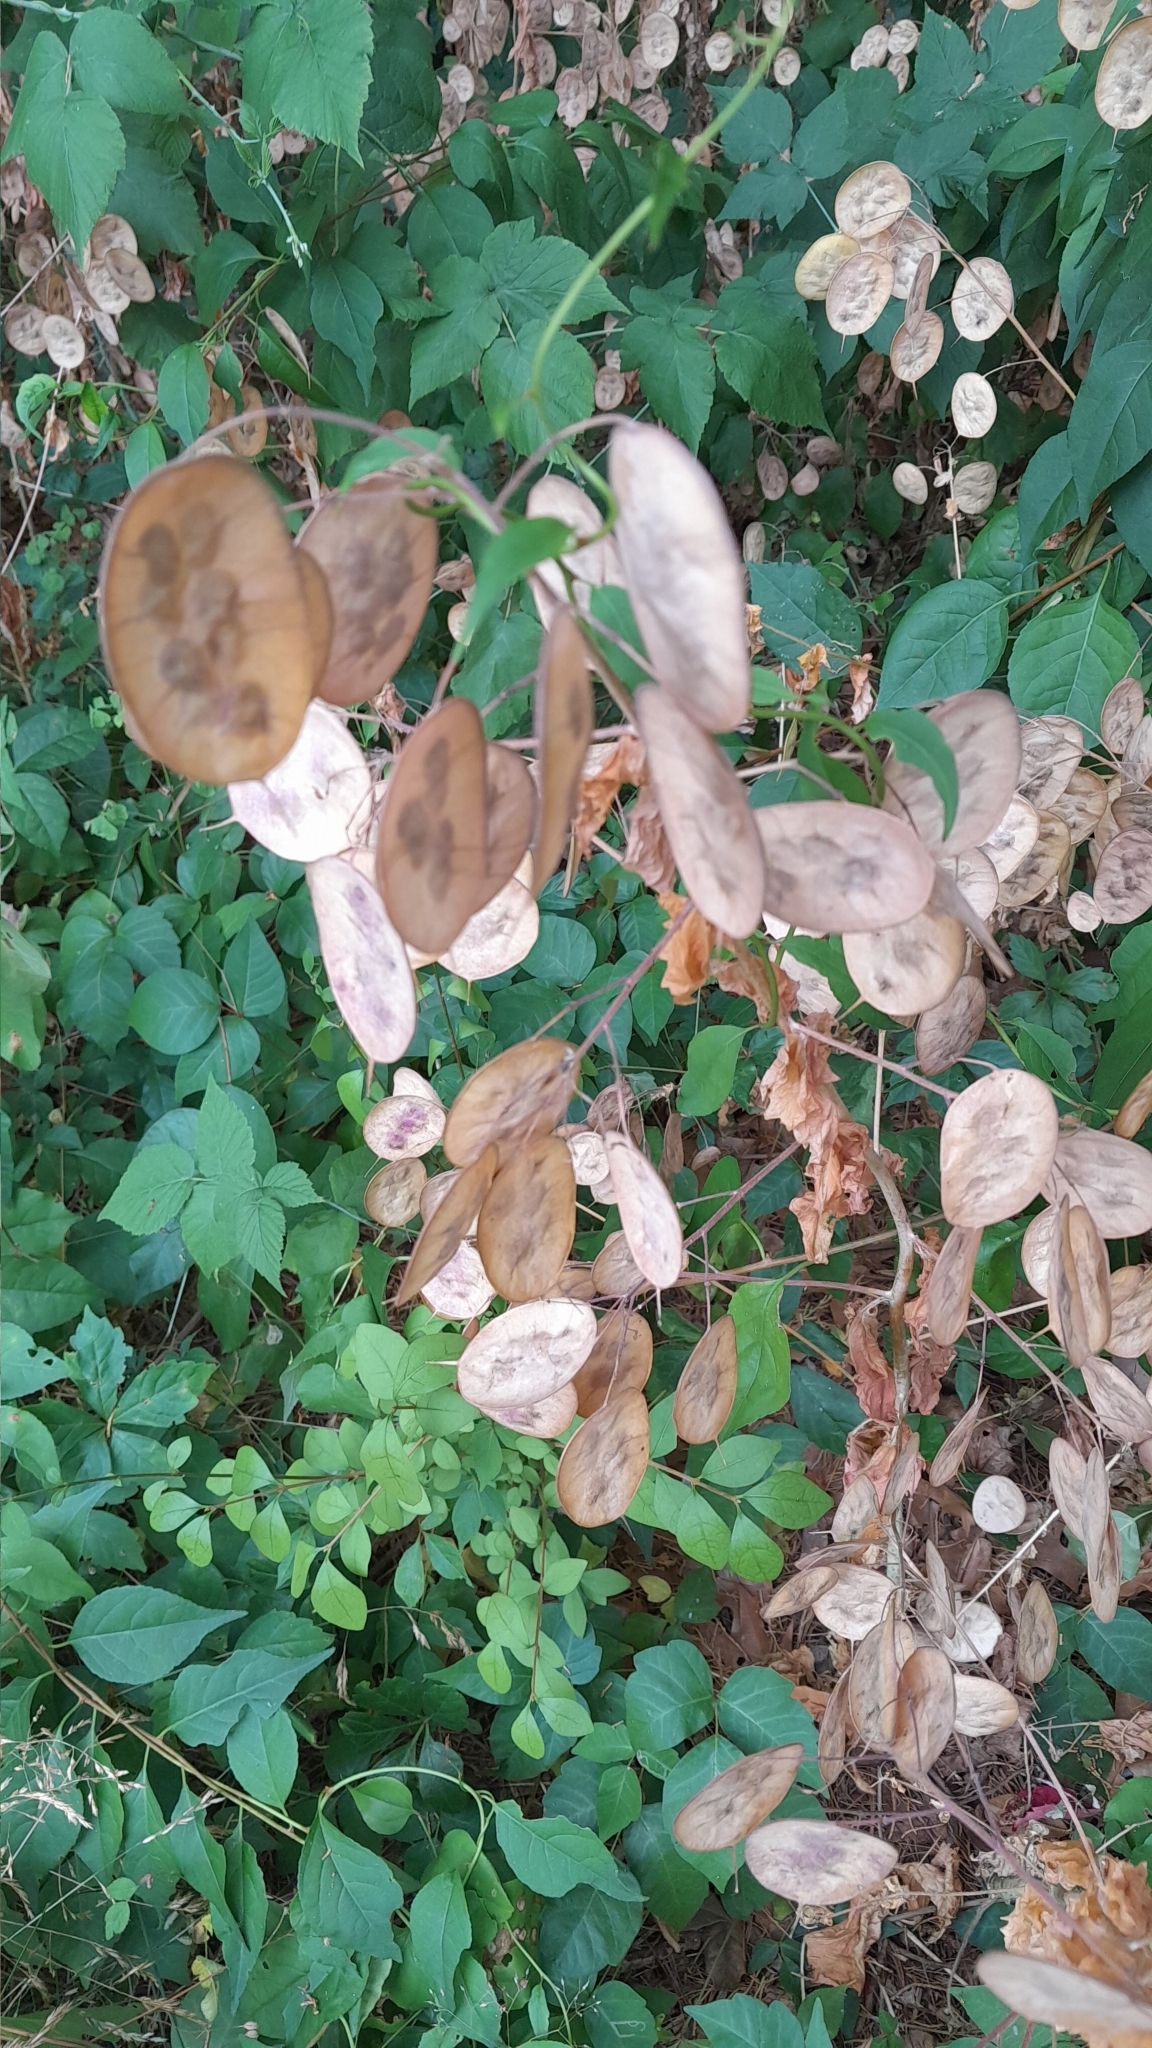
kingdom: Plantae
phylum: Tracheophyta
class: Magnoliopsida
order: Brassicales
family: Brassicaceae
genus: Lunaria
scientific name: Lunaria annua
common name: Honesty
